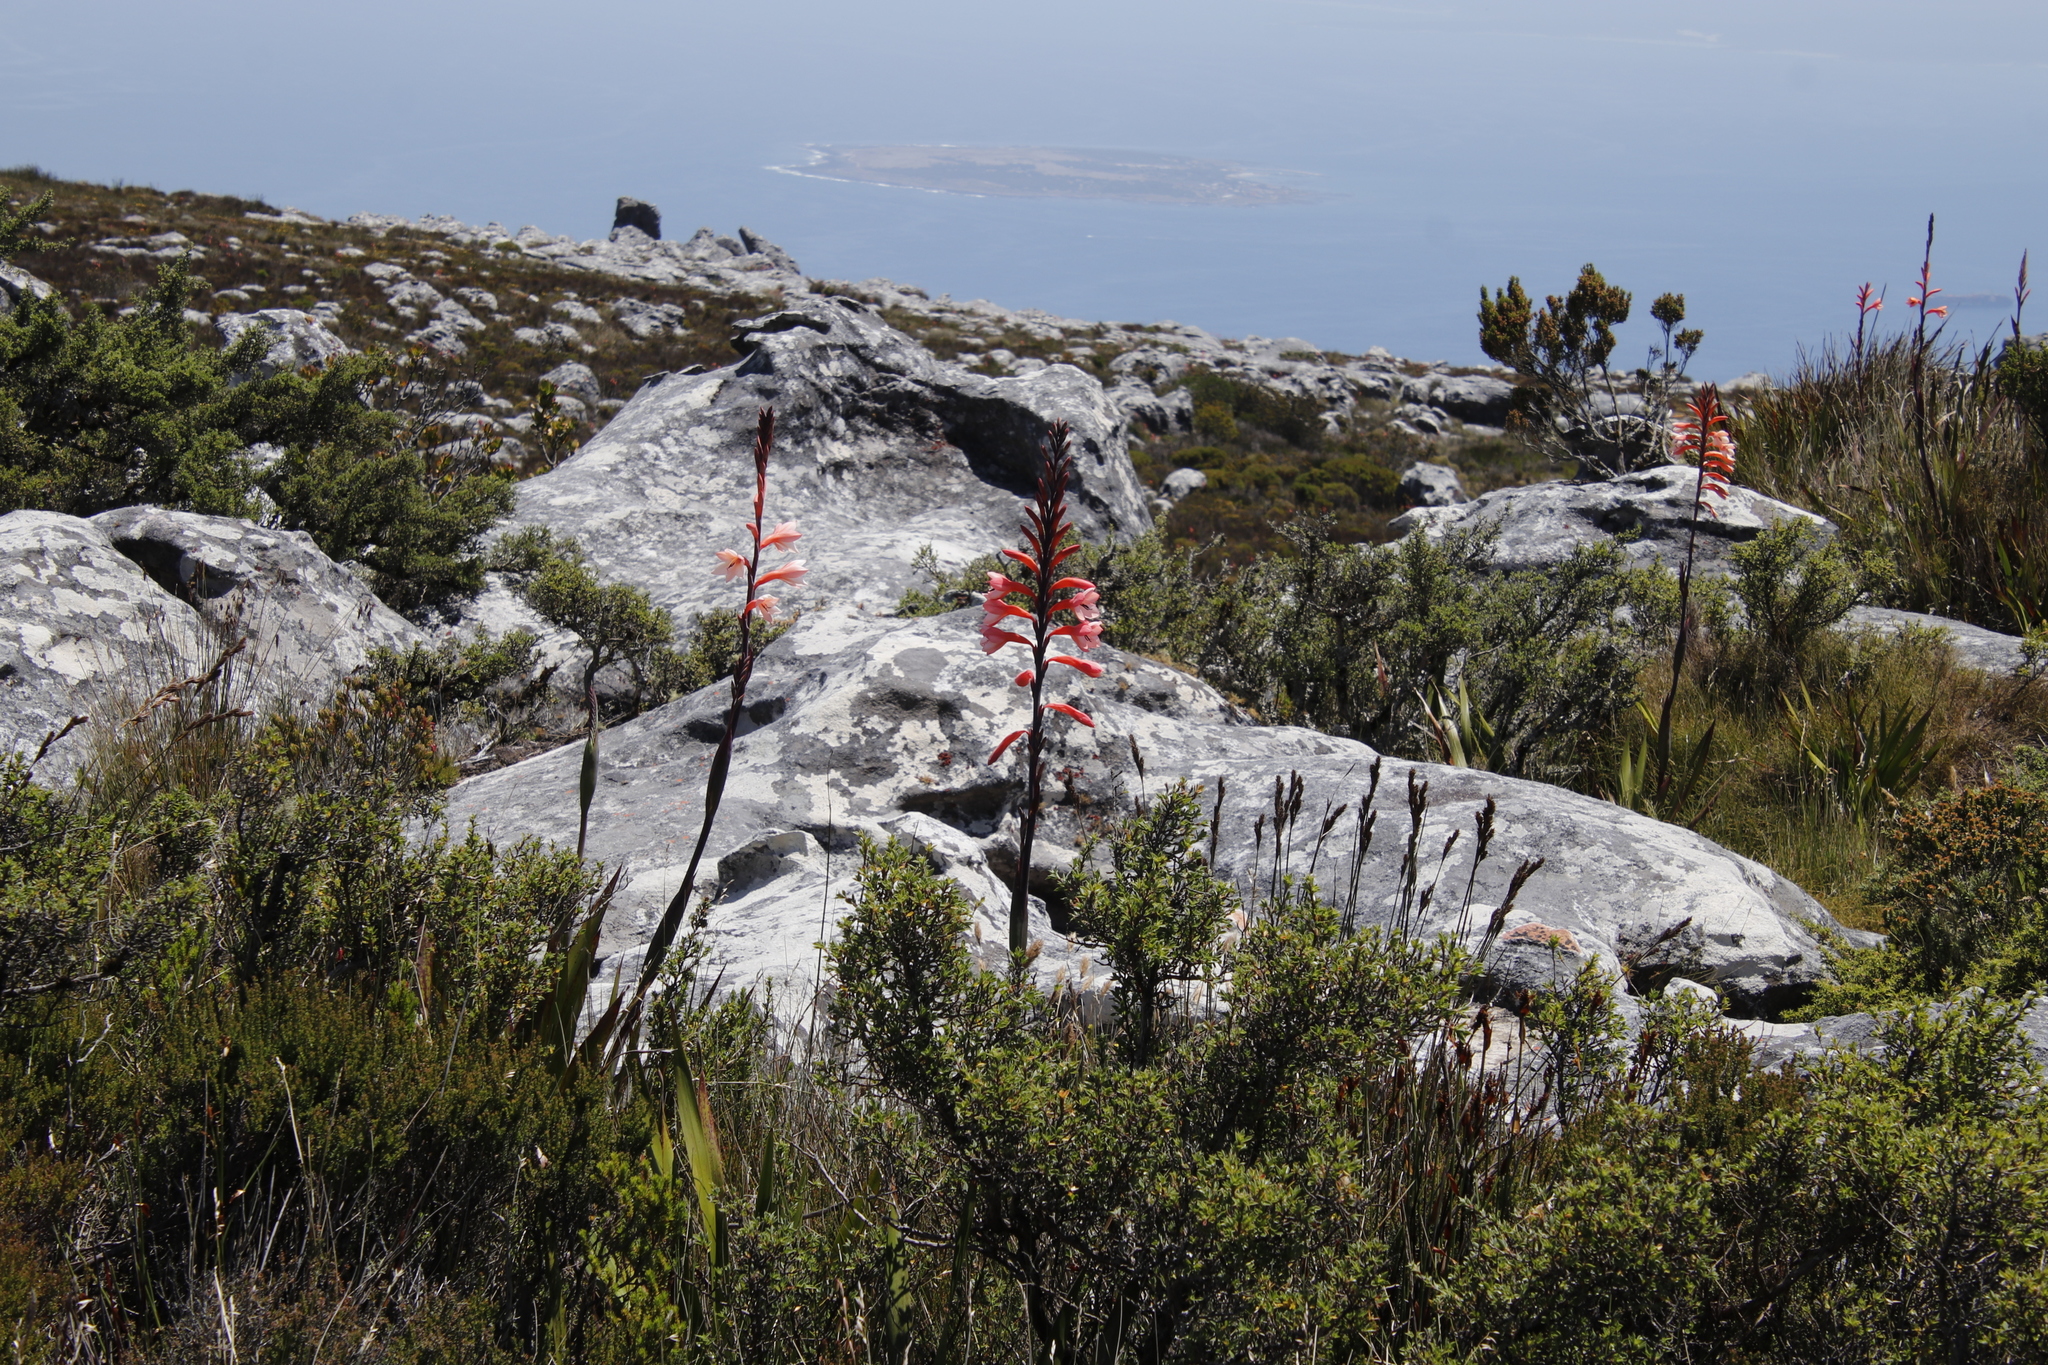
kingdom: Plantae
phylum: Tracheophyta
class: Liliopsida
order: Asparagales
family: Iridaceae
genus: Watsonia
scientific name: Watsonia tabularis
